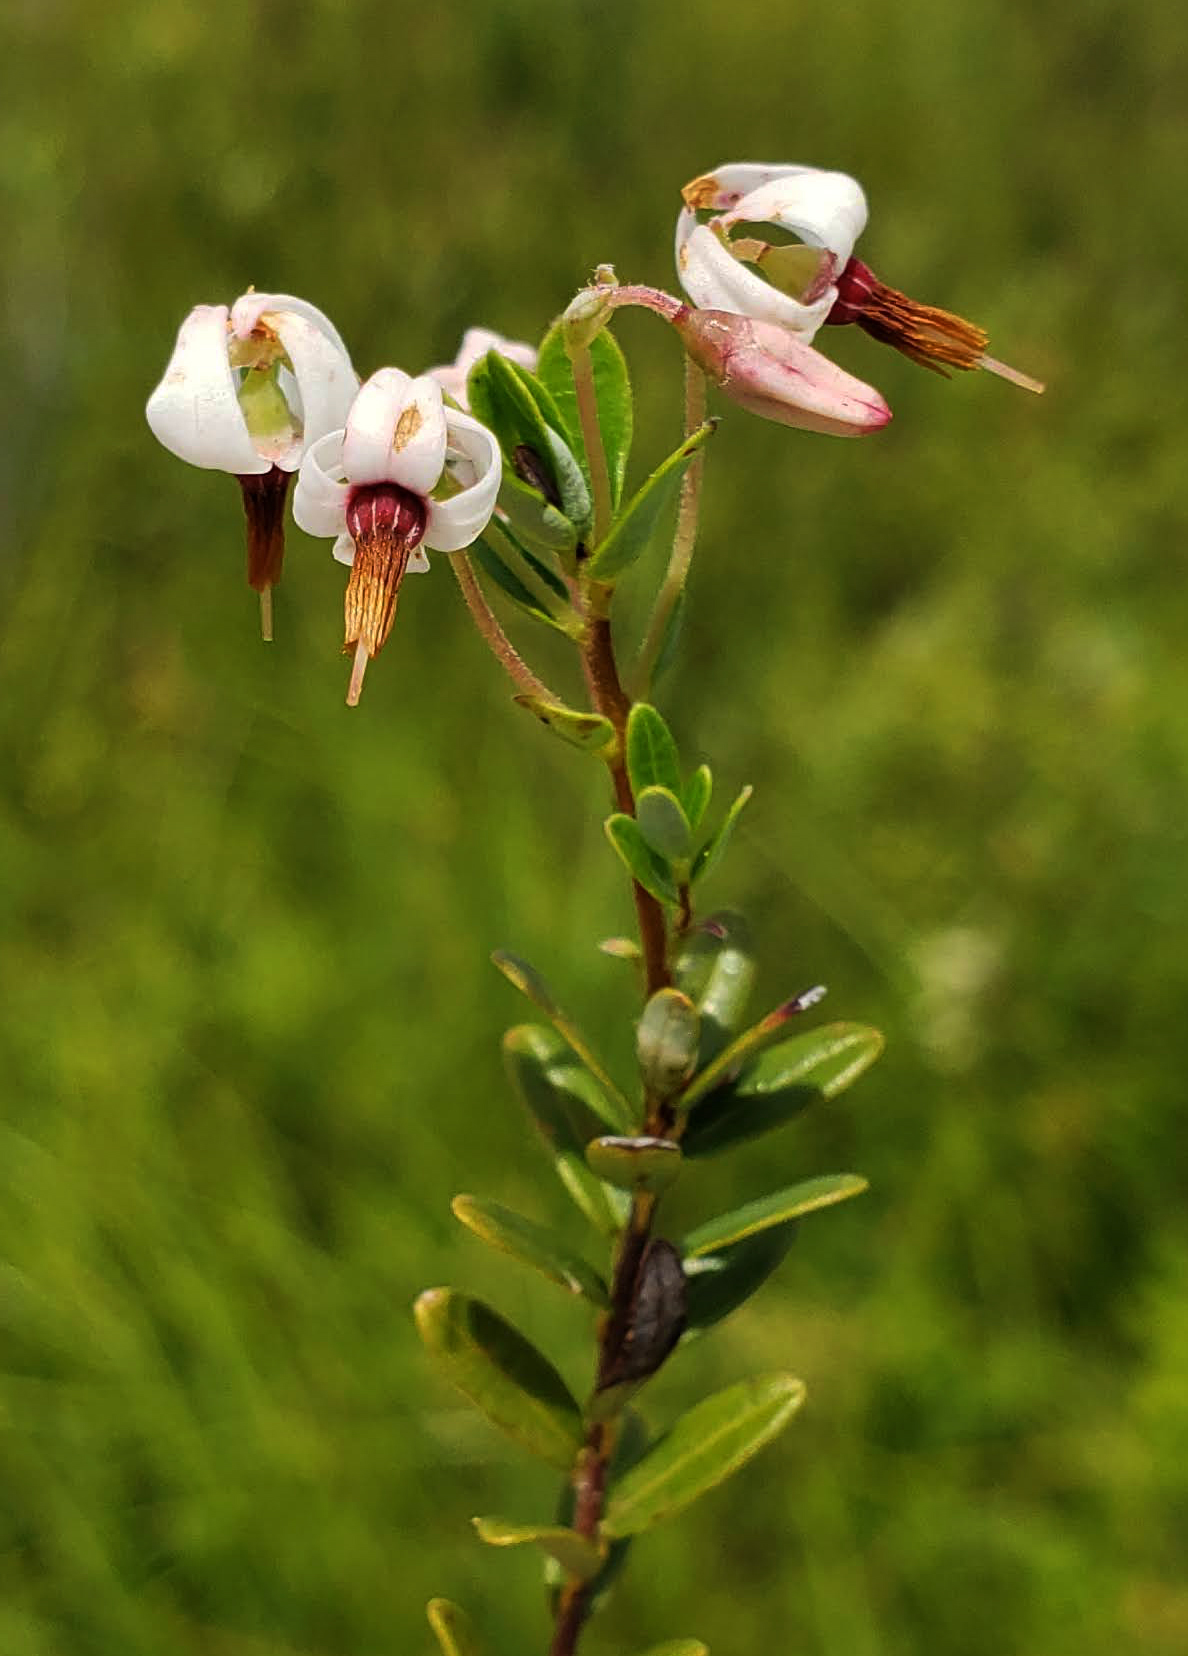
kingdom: Plantae
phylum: Tracheophyta
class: Magnoliopsida
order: Ericales
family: Ericaceae
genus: Vaccinium
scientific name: Vaccinium macrocarpon
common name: American cranberry
